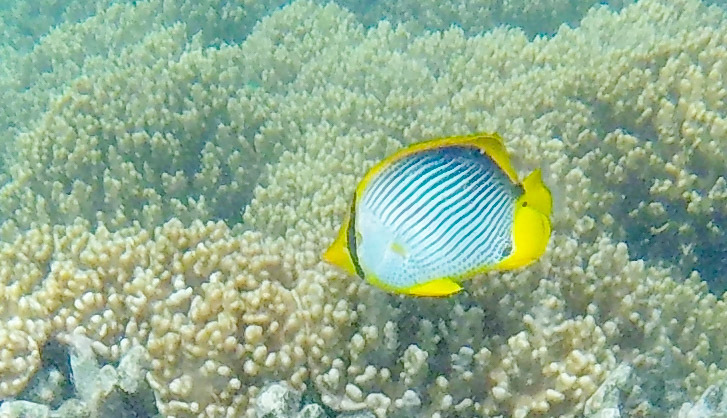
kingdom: Animalia
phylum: Chordata
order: Perciformes
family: Chaetodontidae
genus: Chaetodon
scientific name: Chaetodon melannotus
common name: Blackback butterflyfish
